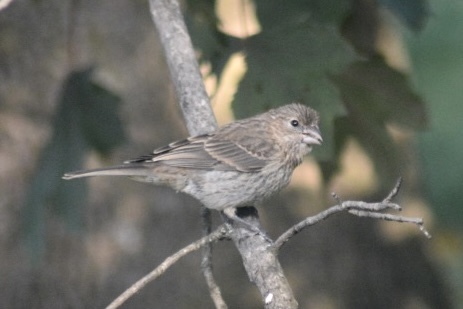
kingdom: Animalia
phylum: Chordata
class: Aves
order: Passeriformes
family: Fringillidae
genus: Haemorhous
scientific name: Haemorhous mexicanus
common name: House finch
